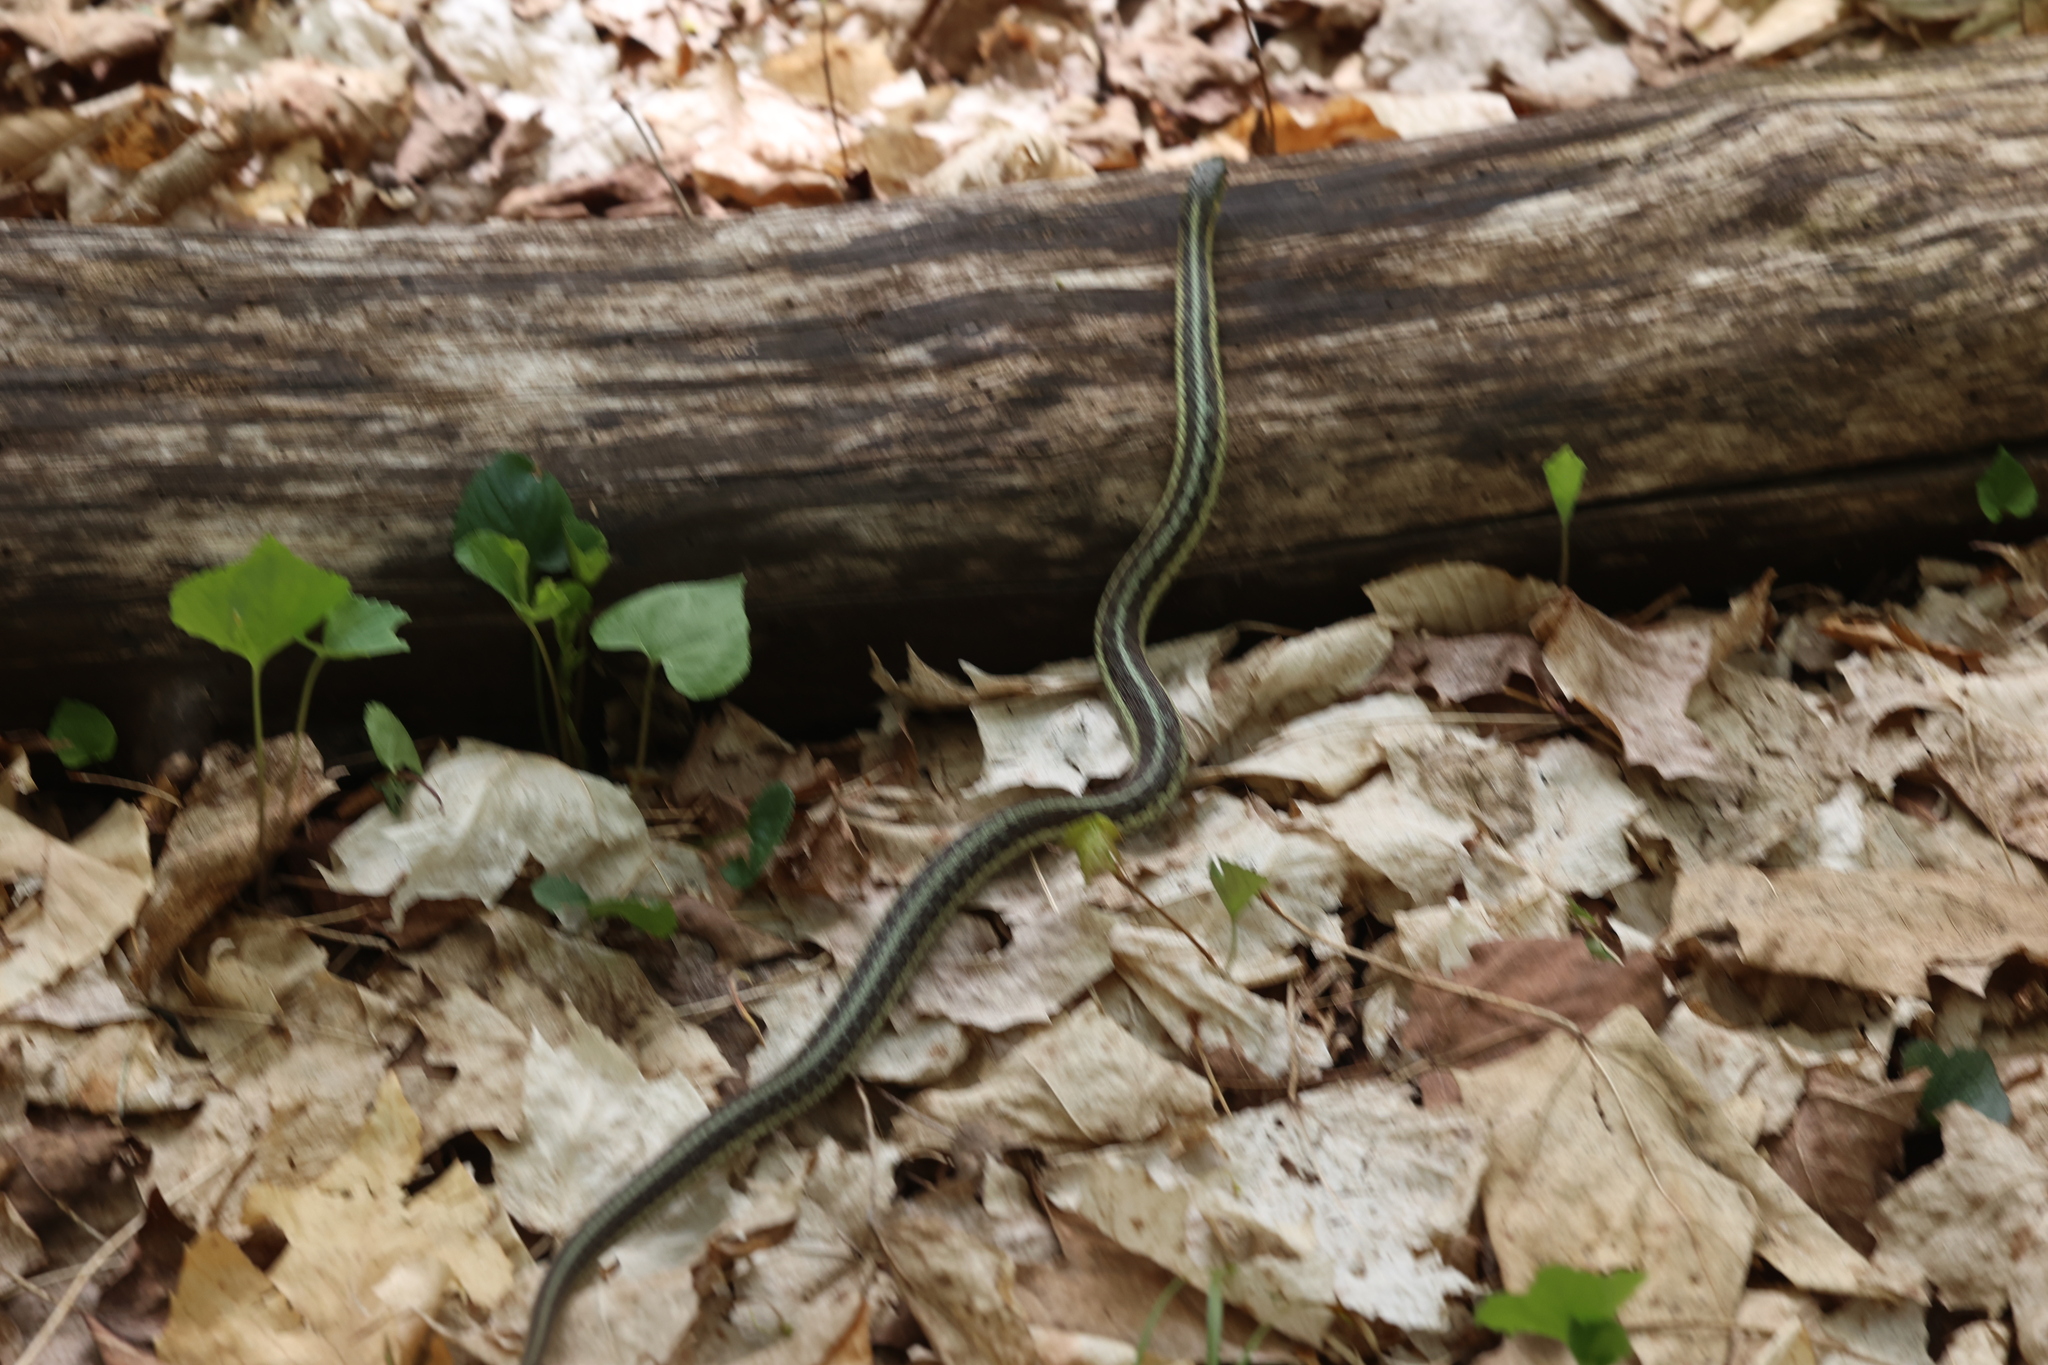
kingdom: Animalia
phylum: Chordata
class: Squamata
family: Colubridae
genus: Thamnophis
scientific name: Thamnophis sirtalis
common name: Common garter snake
